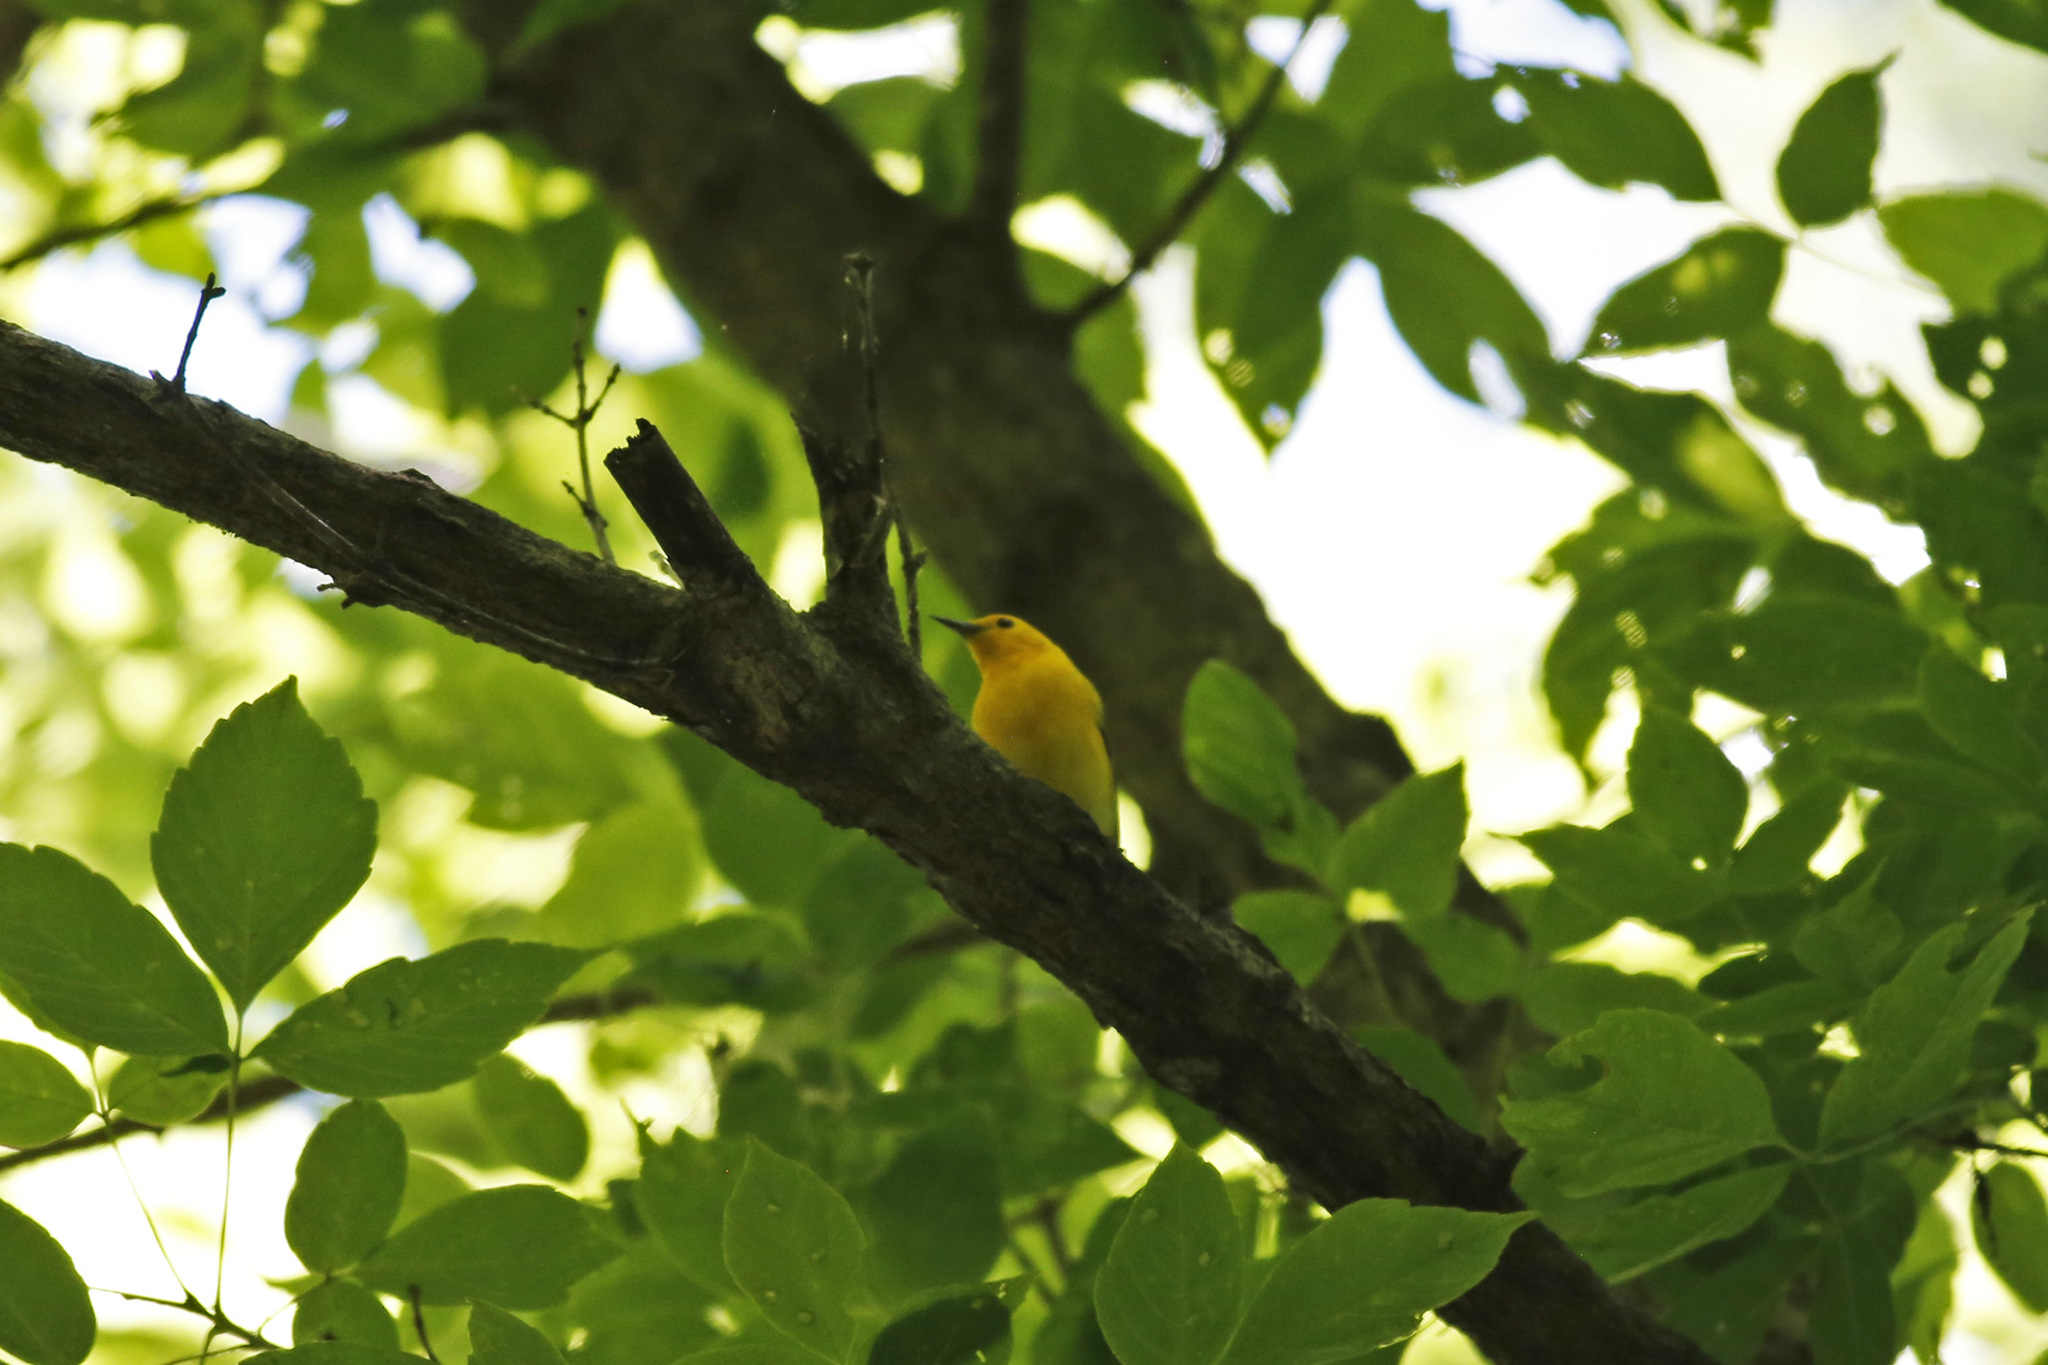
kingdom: Animalia
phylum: Chordata
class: Aves
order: Passeriformes
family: Parulidae
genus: Protonotaria
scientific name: Protonotaria citrea
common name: Prothonotary warbler
